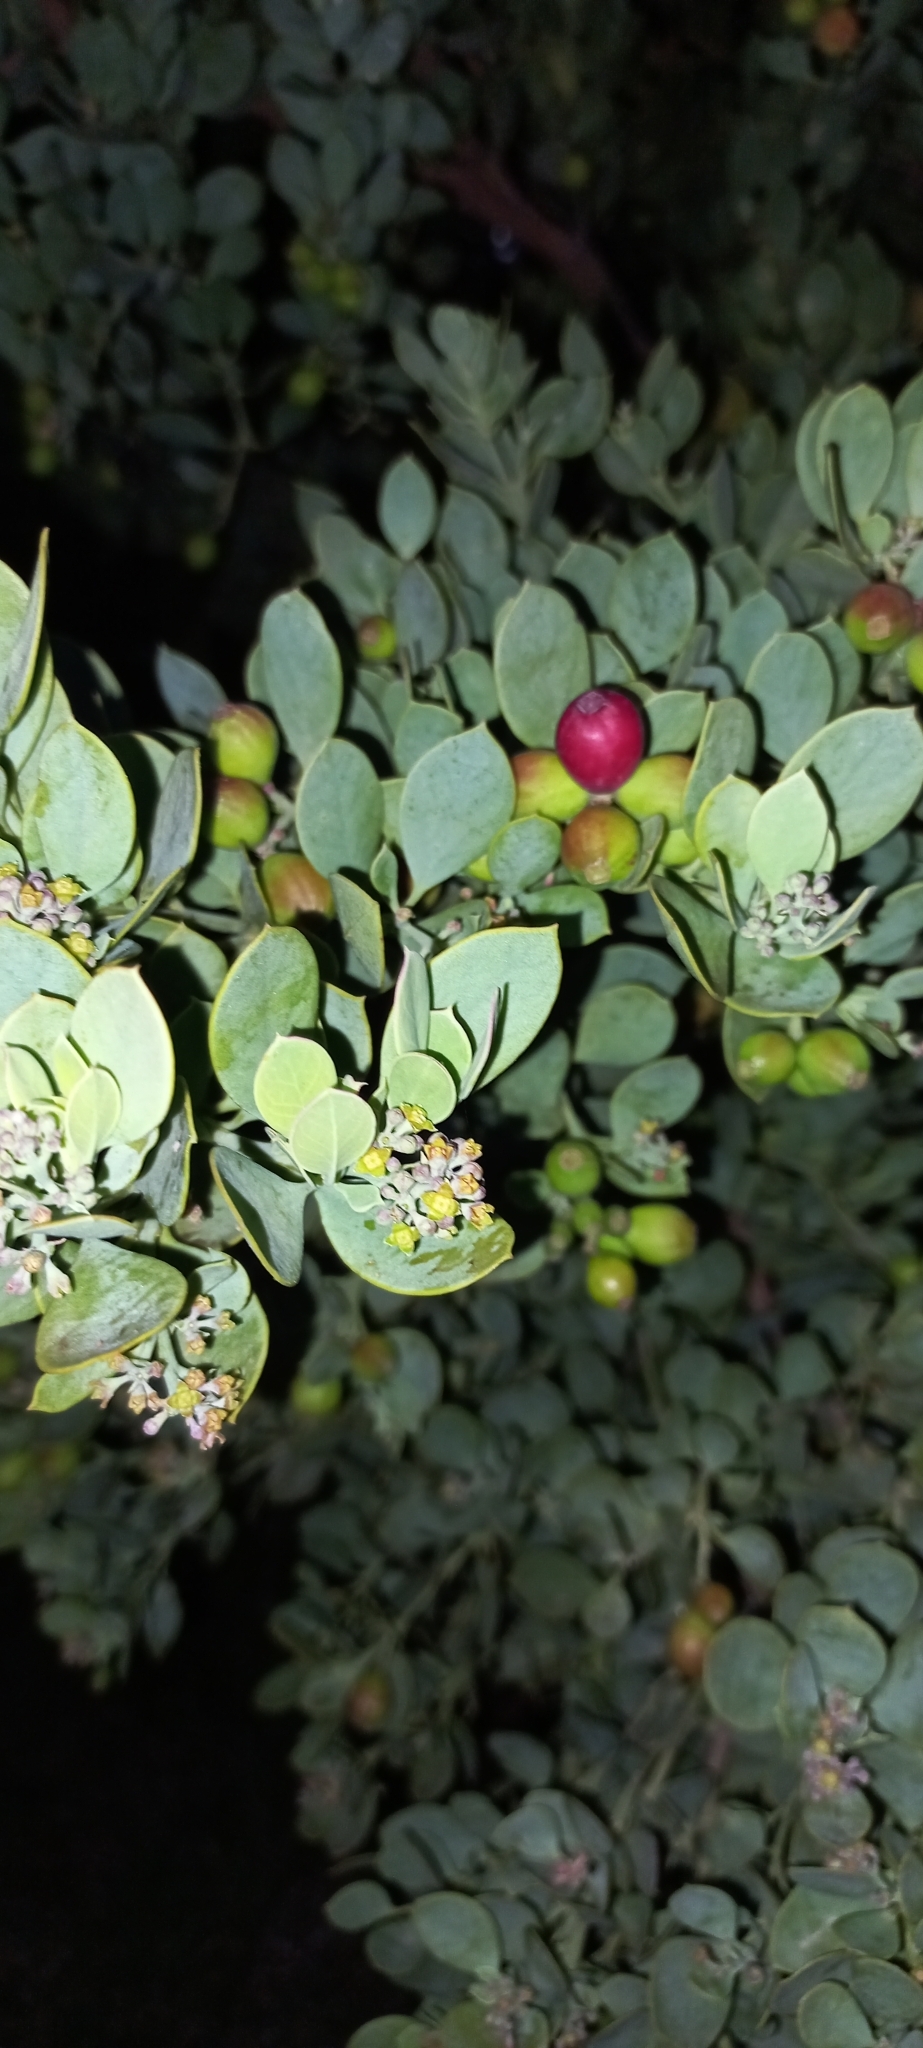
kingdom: Plantae
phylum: Tracheophyta
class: Magnoliopsida
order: Santalales
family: Santalaceae
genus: Osyris
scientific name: Osyris compressa
